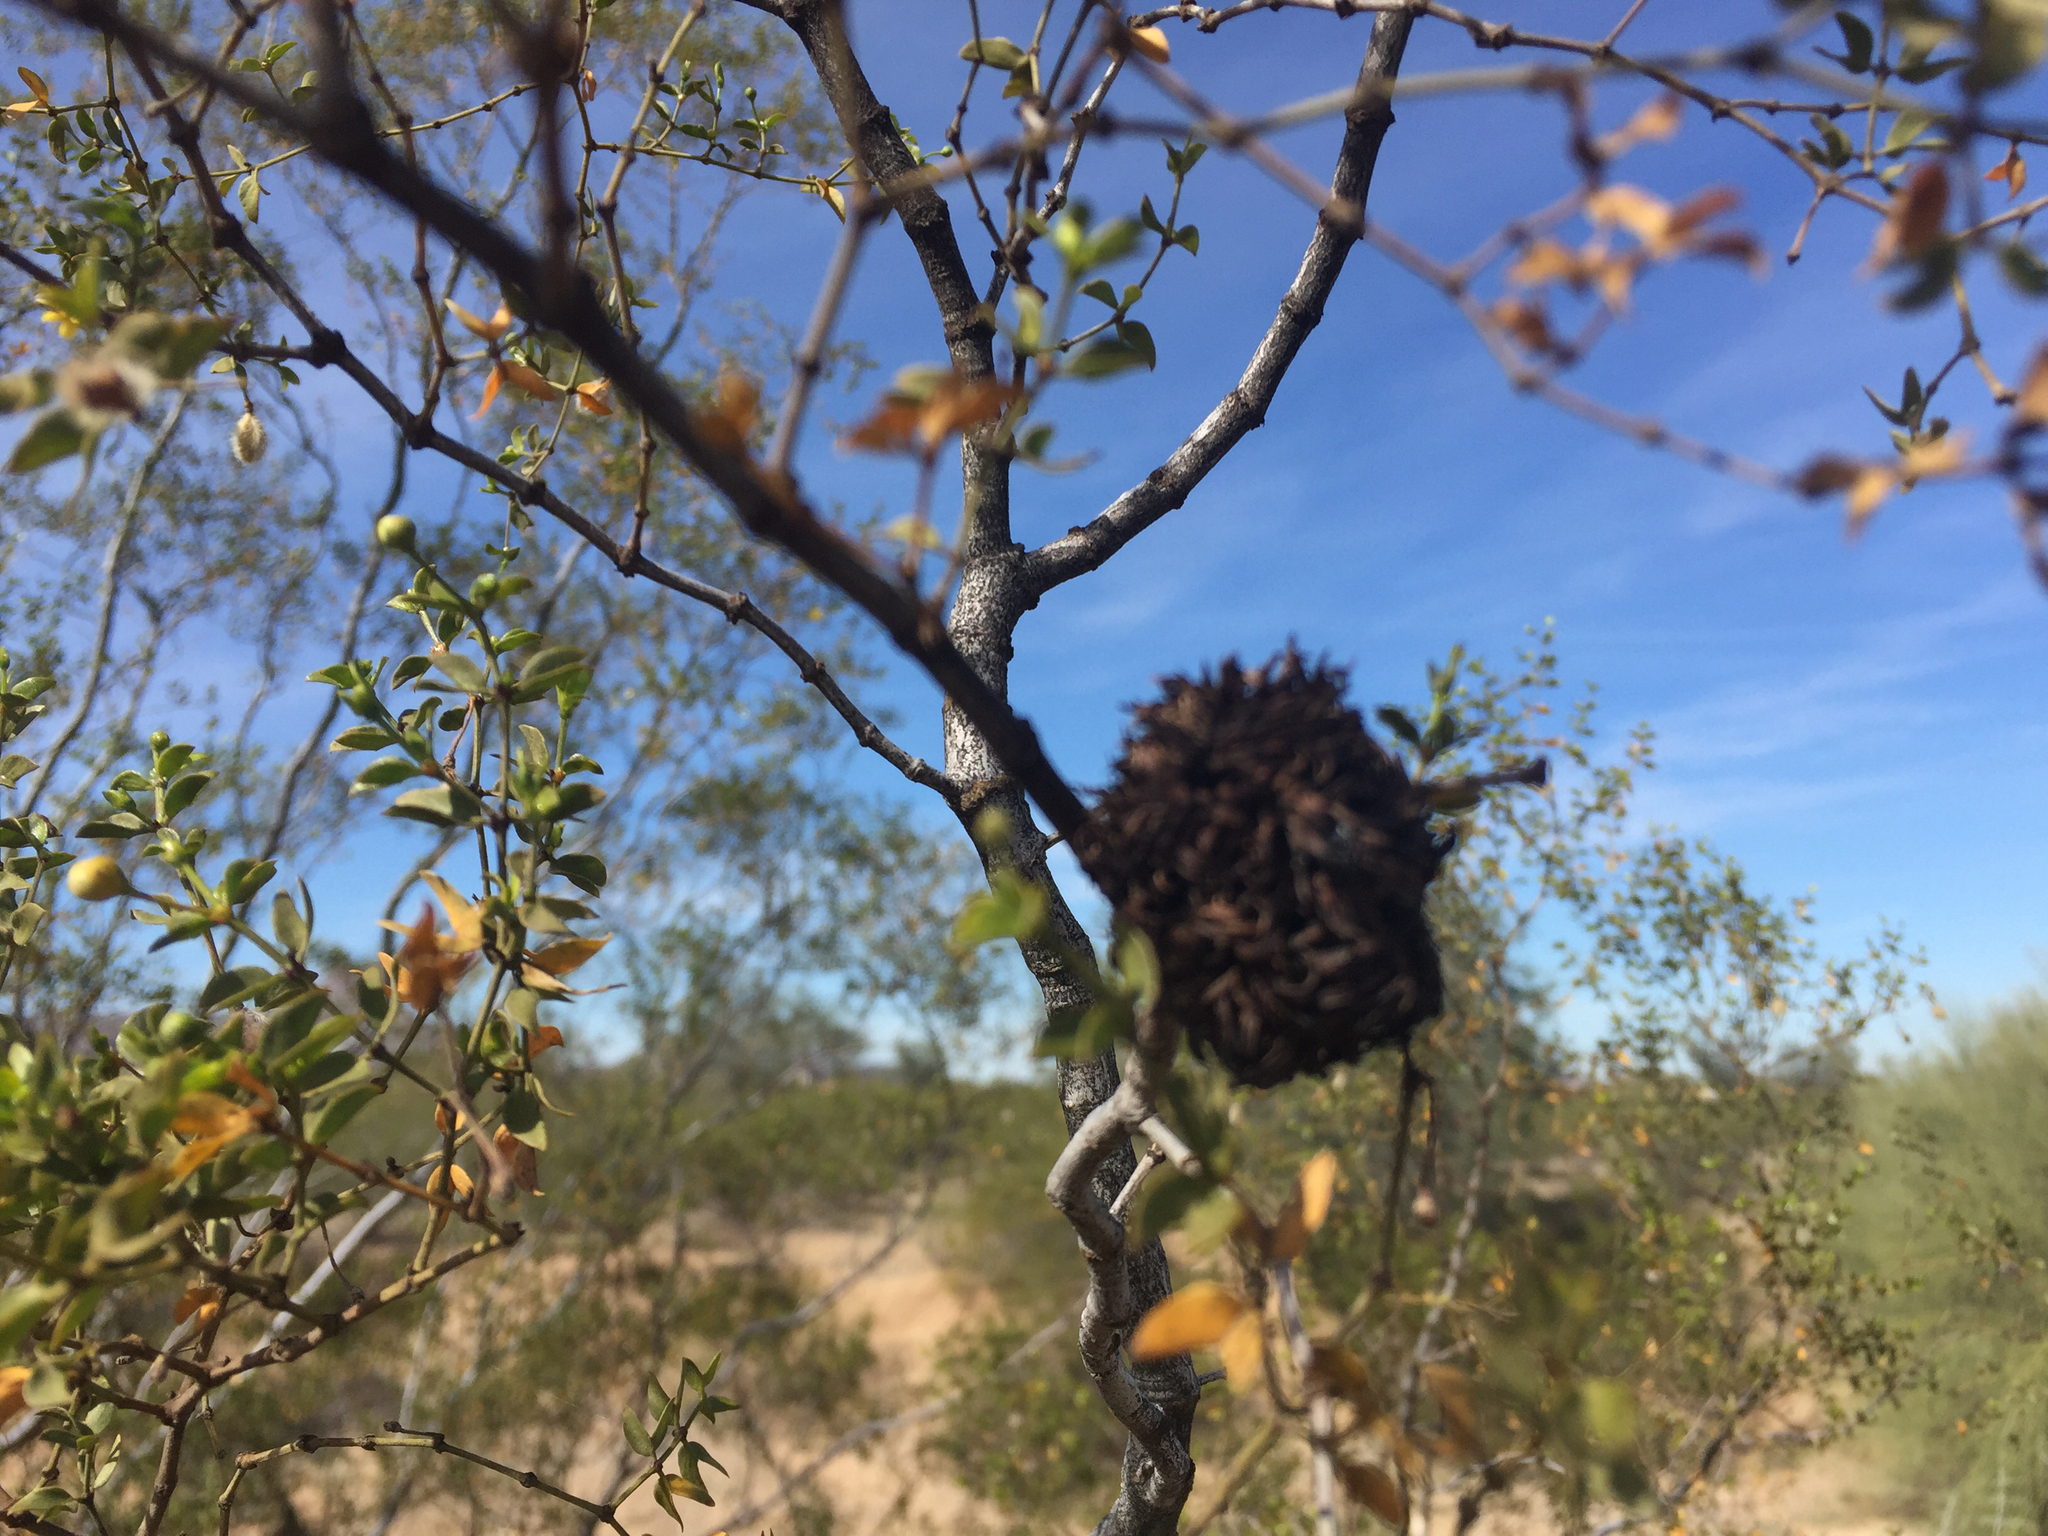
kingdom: Animalia
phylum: Arthropoda
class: Insecta
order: Diptera
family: Cecidomyiidae
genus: Asphondylia
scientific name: Asphondylia auripila
